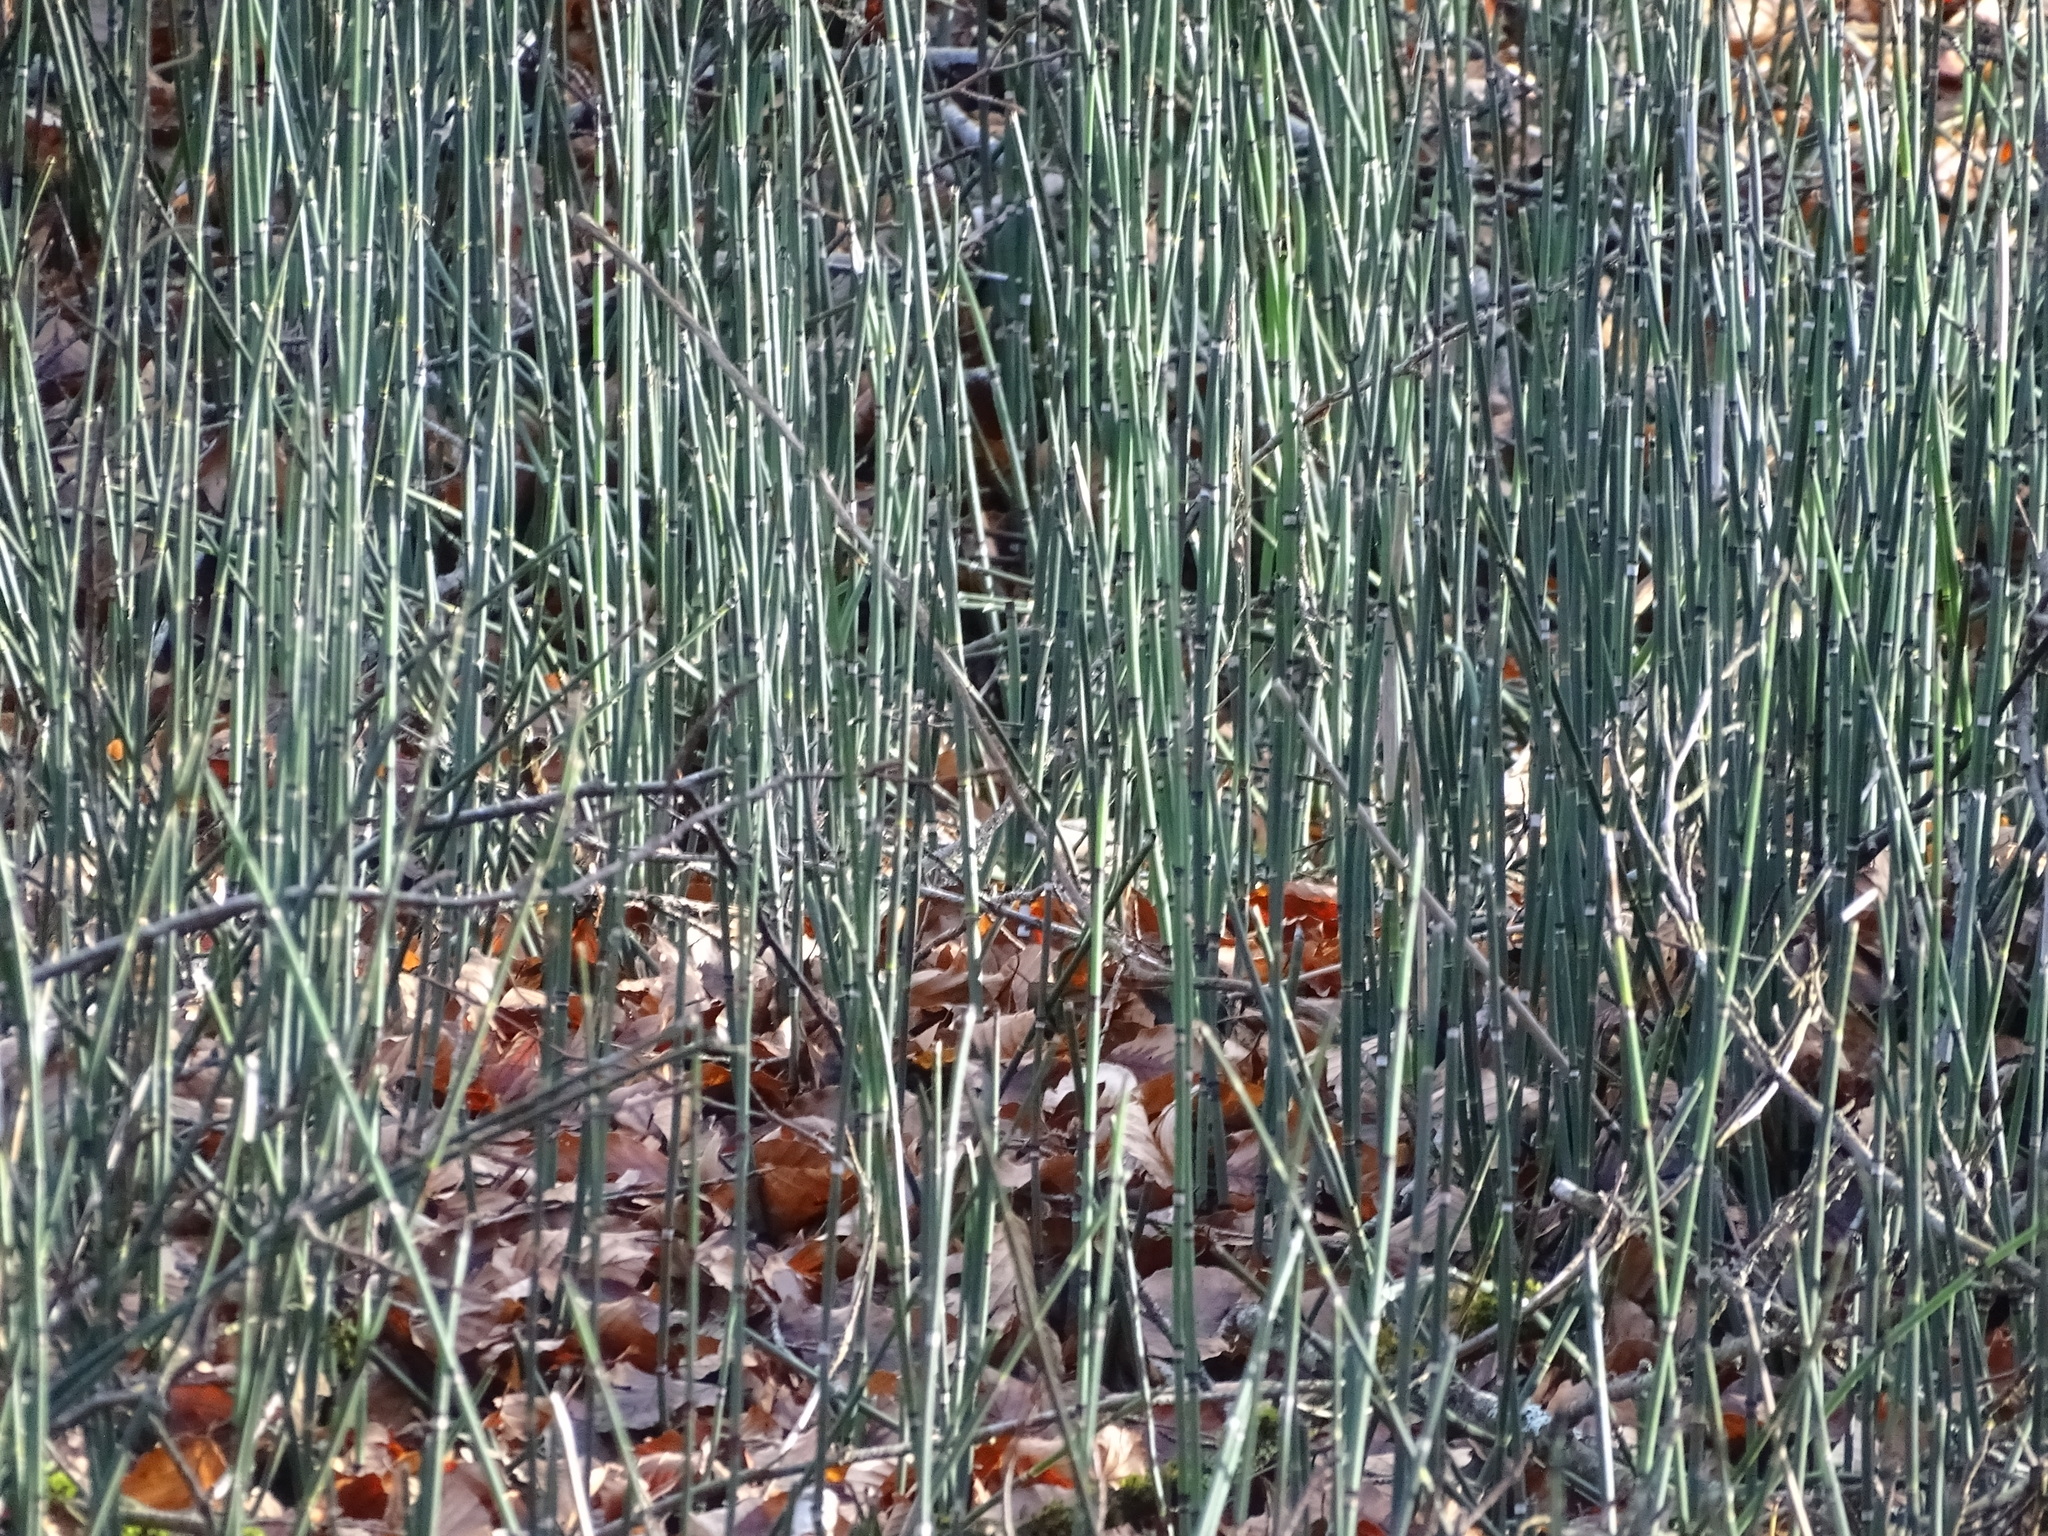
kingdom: Plantae
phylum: Tracheophyta
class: Polypodiopsida
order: Equisetales
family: Equisetaceae
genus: Equisetum
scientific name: Equisetum hyemale
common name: Rough horsetail
